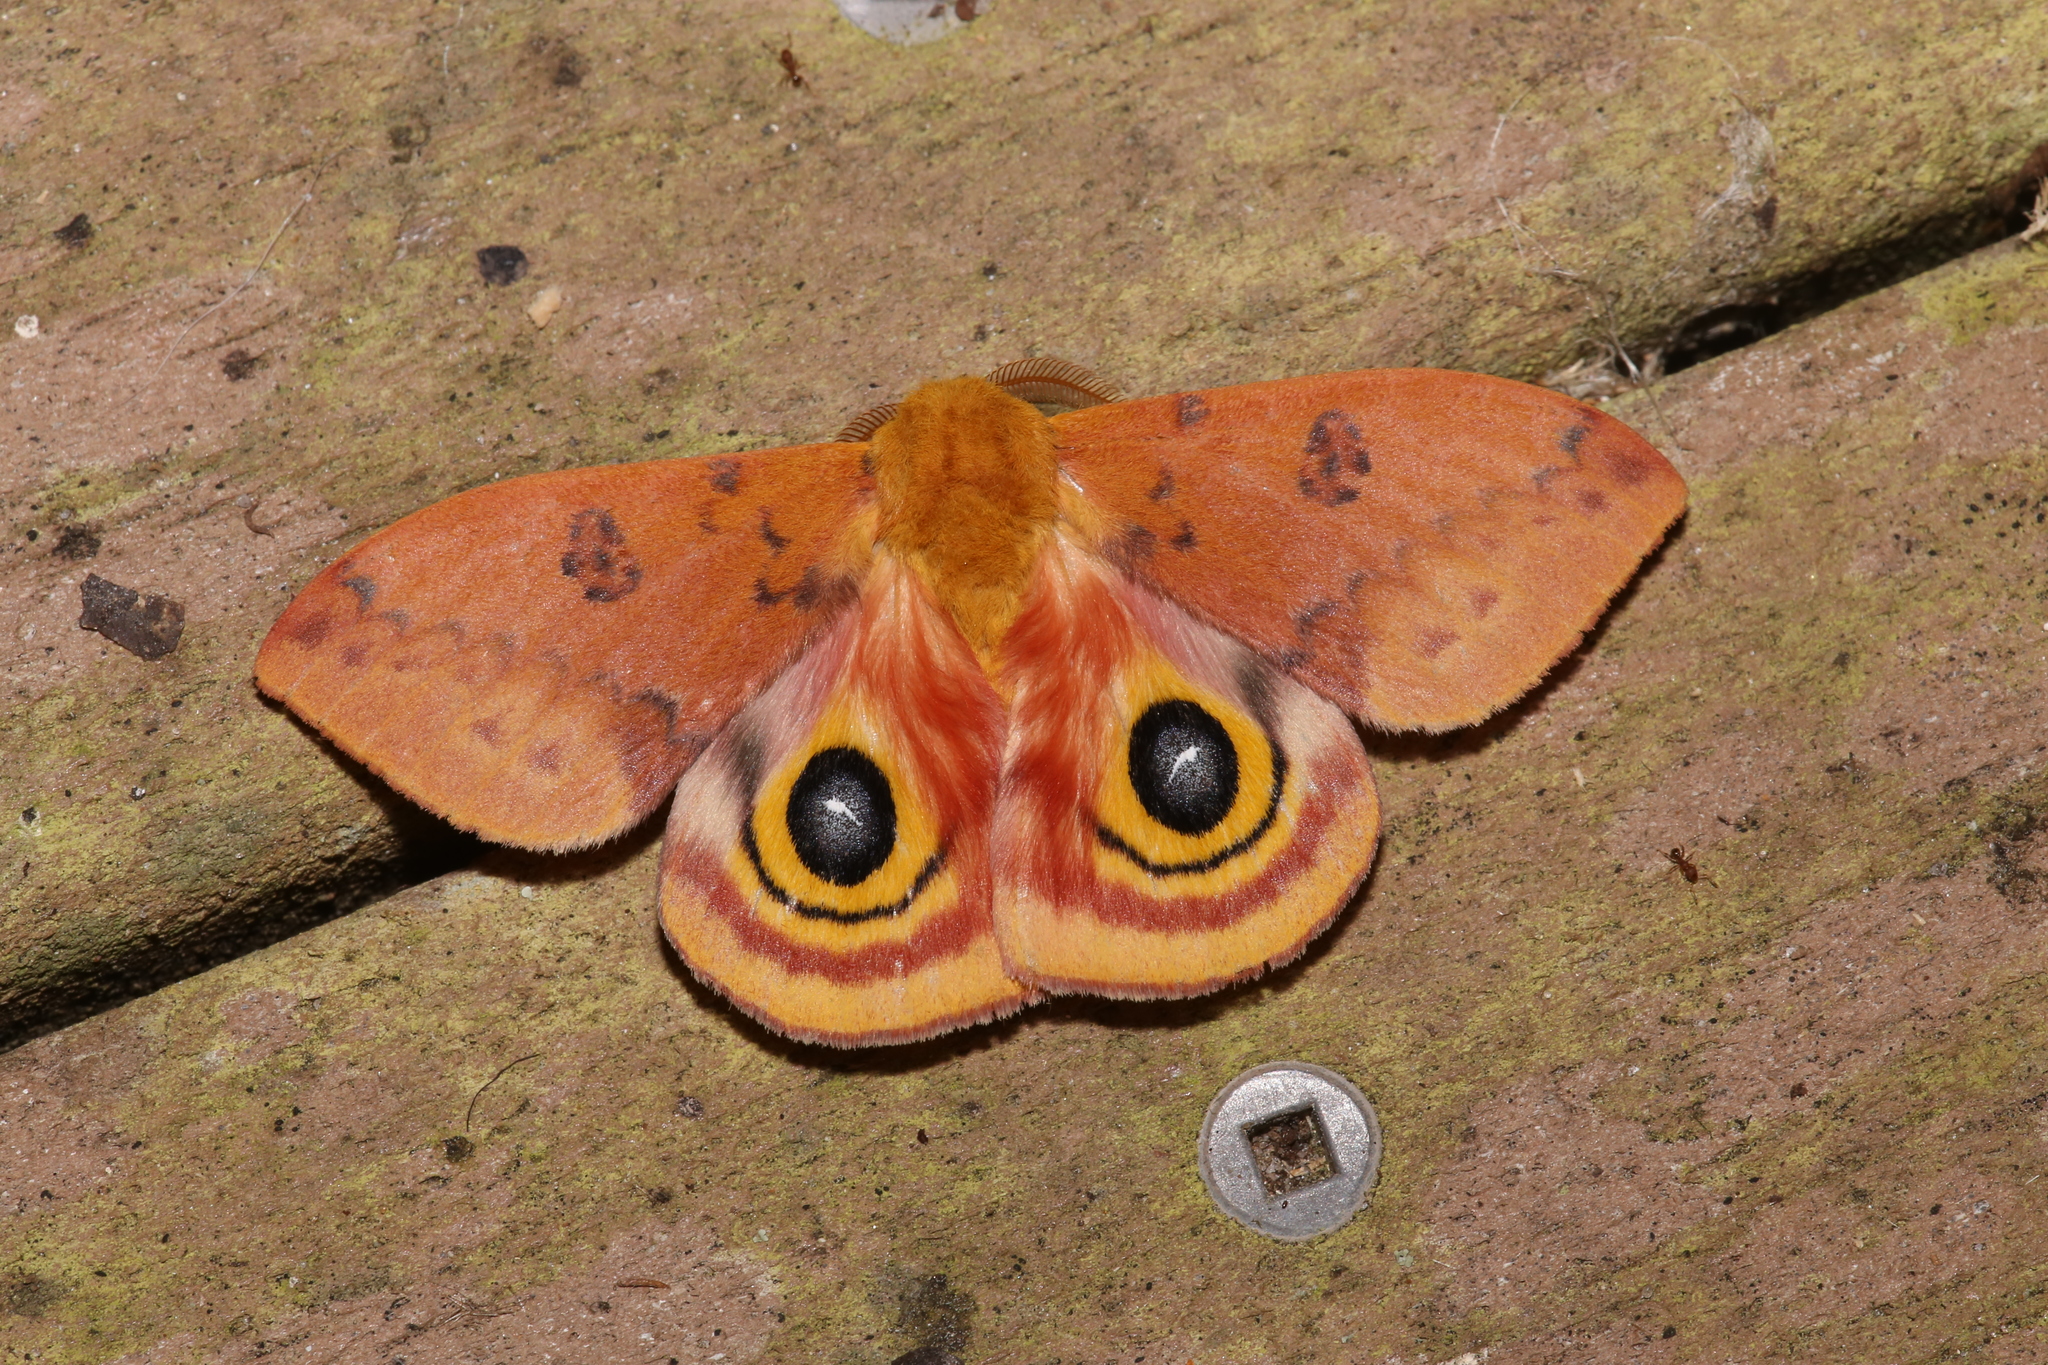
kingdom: Animalia
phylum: Arthropoda
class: Insecta
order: Lepidoptera
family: Saturniidae
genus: Automeris
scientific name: Automeris io
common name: Io moth
